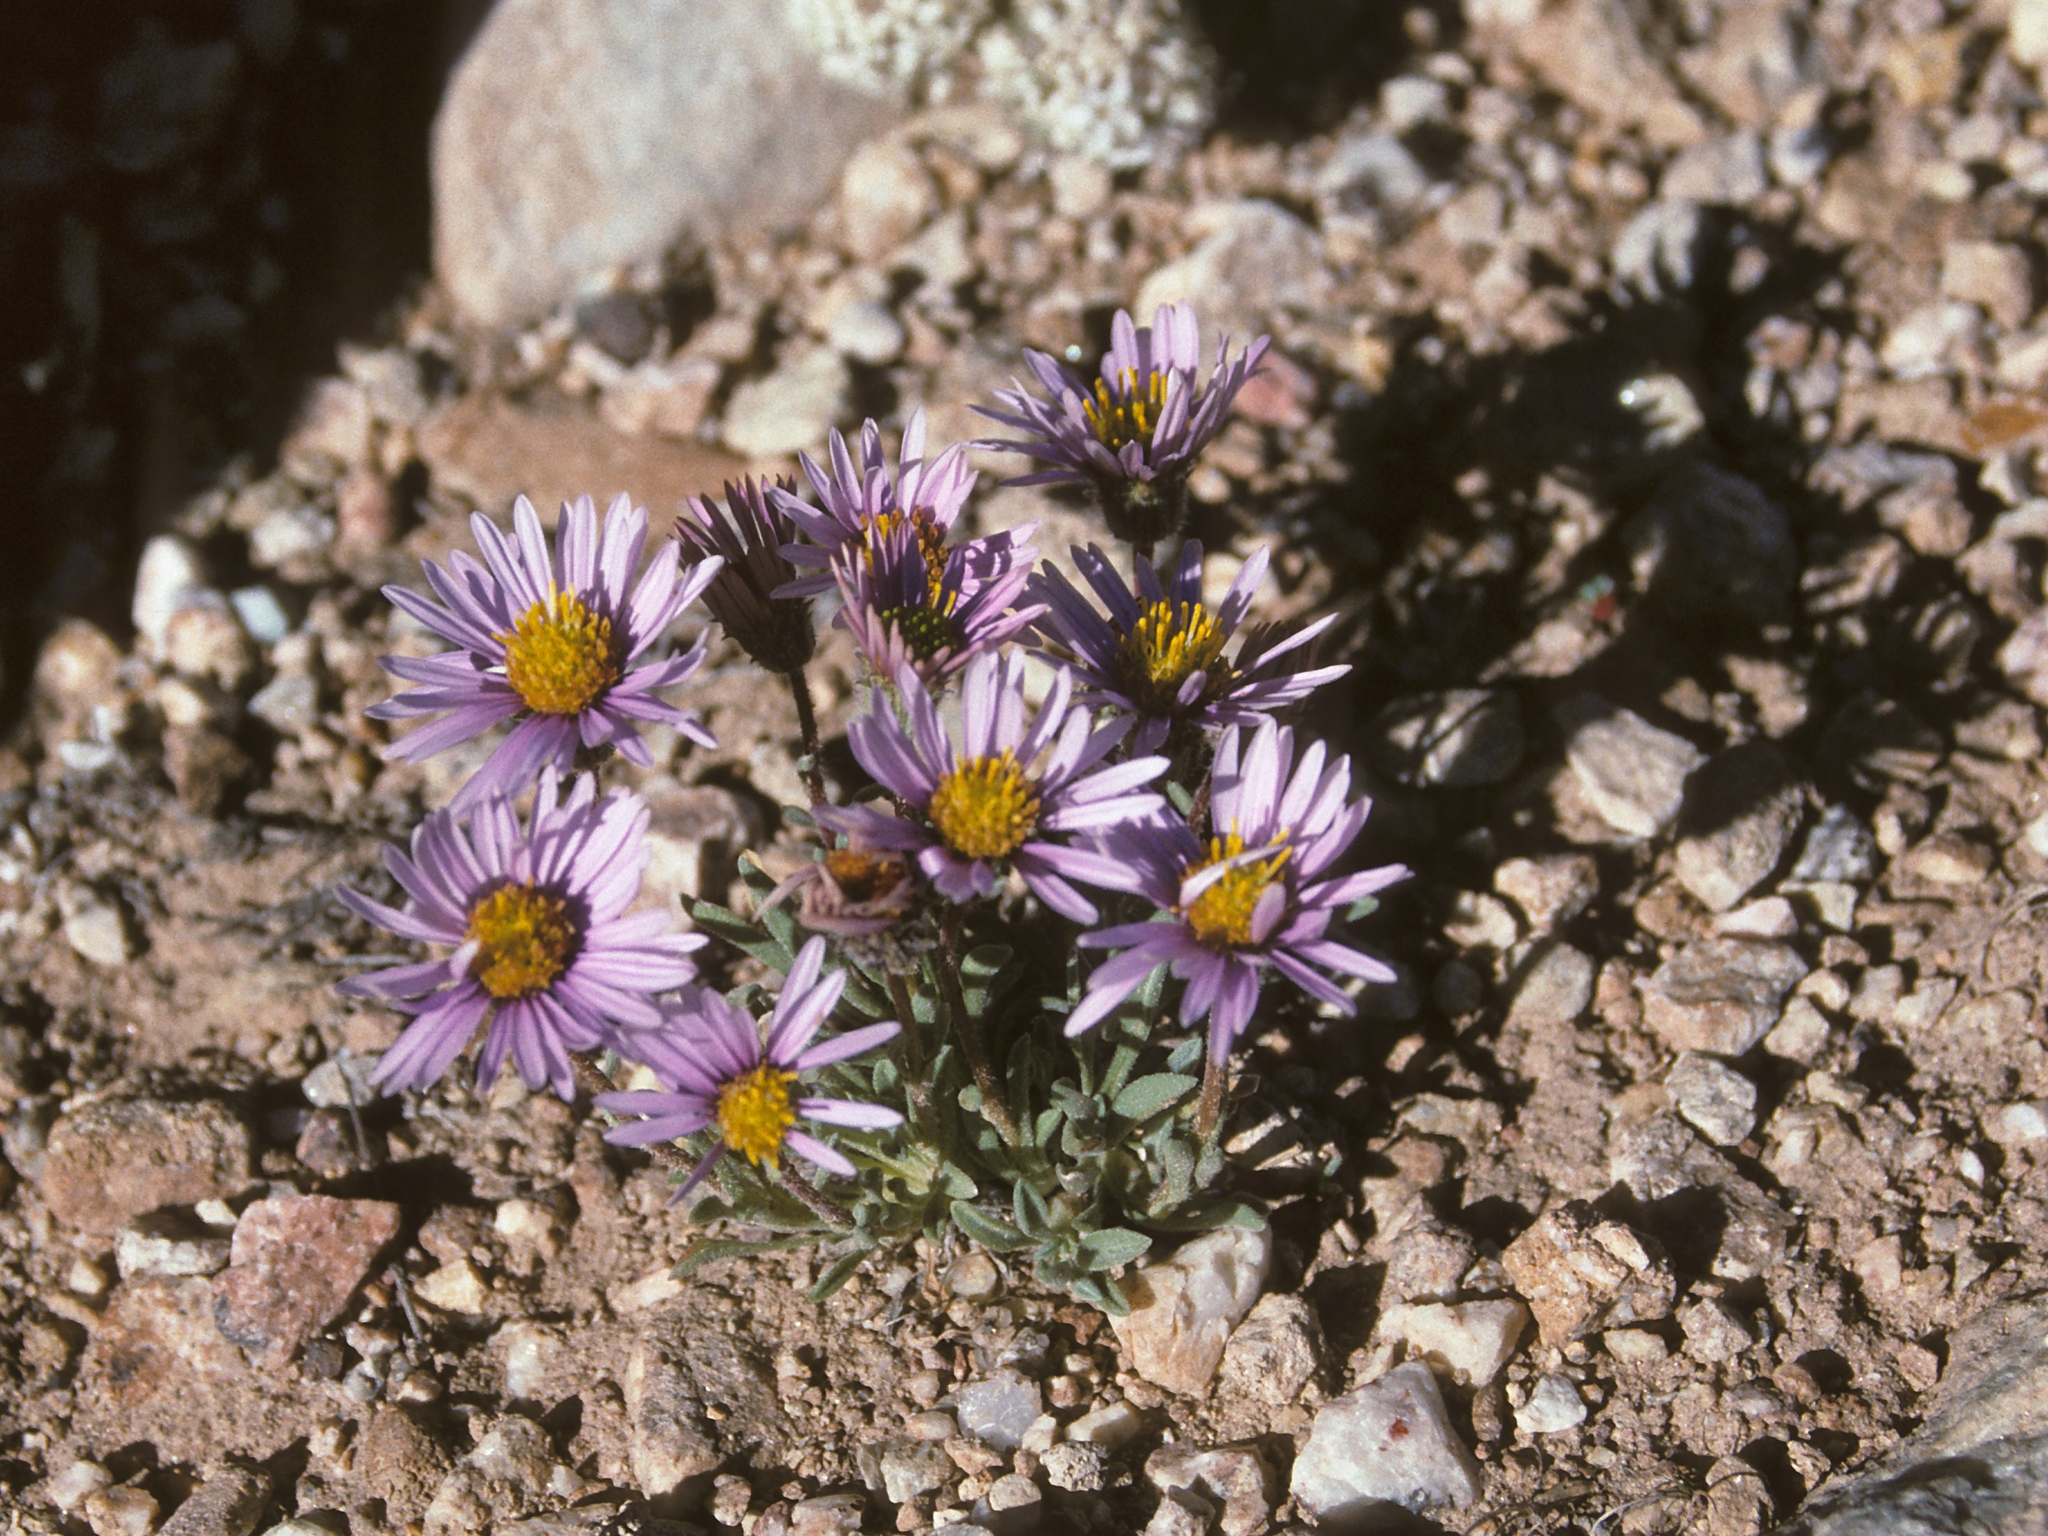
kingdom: Plantae
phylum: Tracheophyta
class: Magnoliopsida
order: Asterales
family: Asteraceae
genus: Erigeron
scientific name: Erigeron pygmaeus
